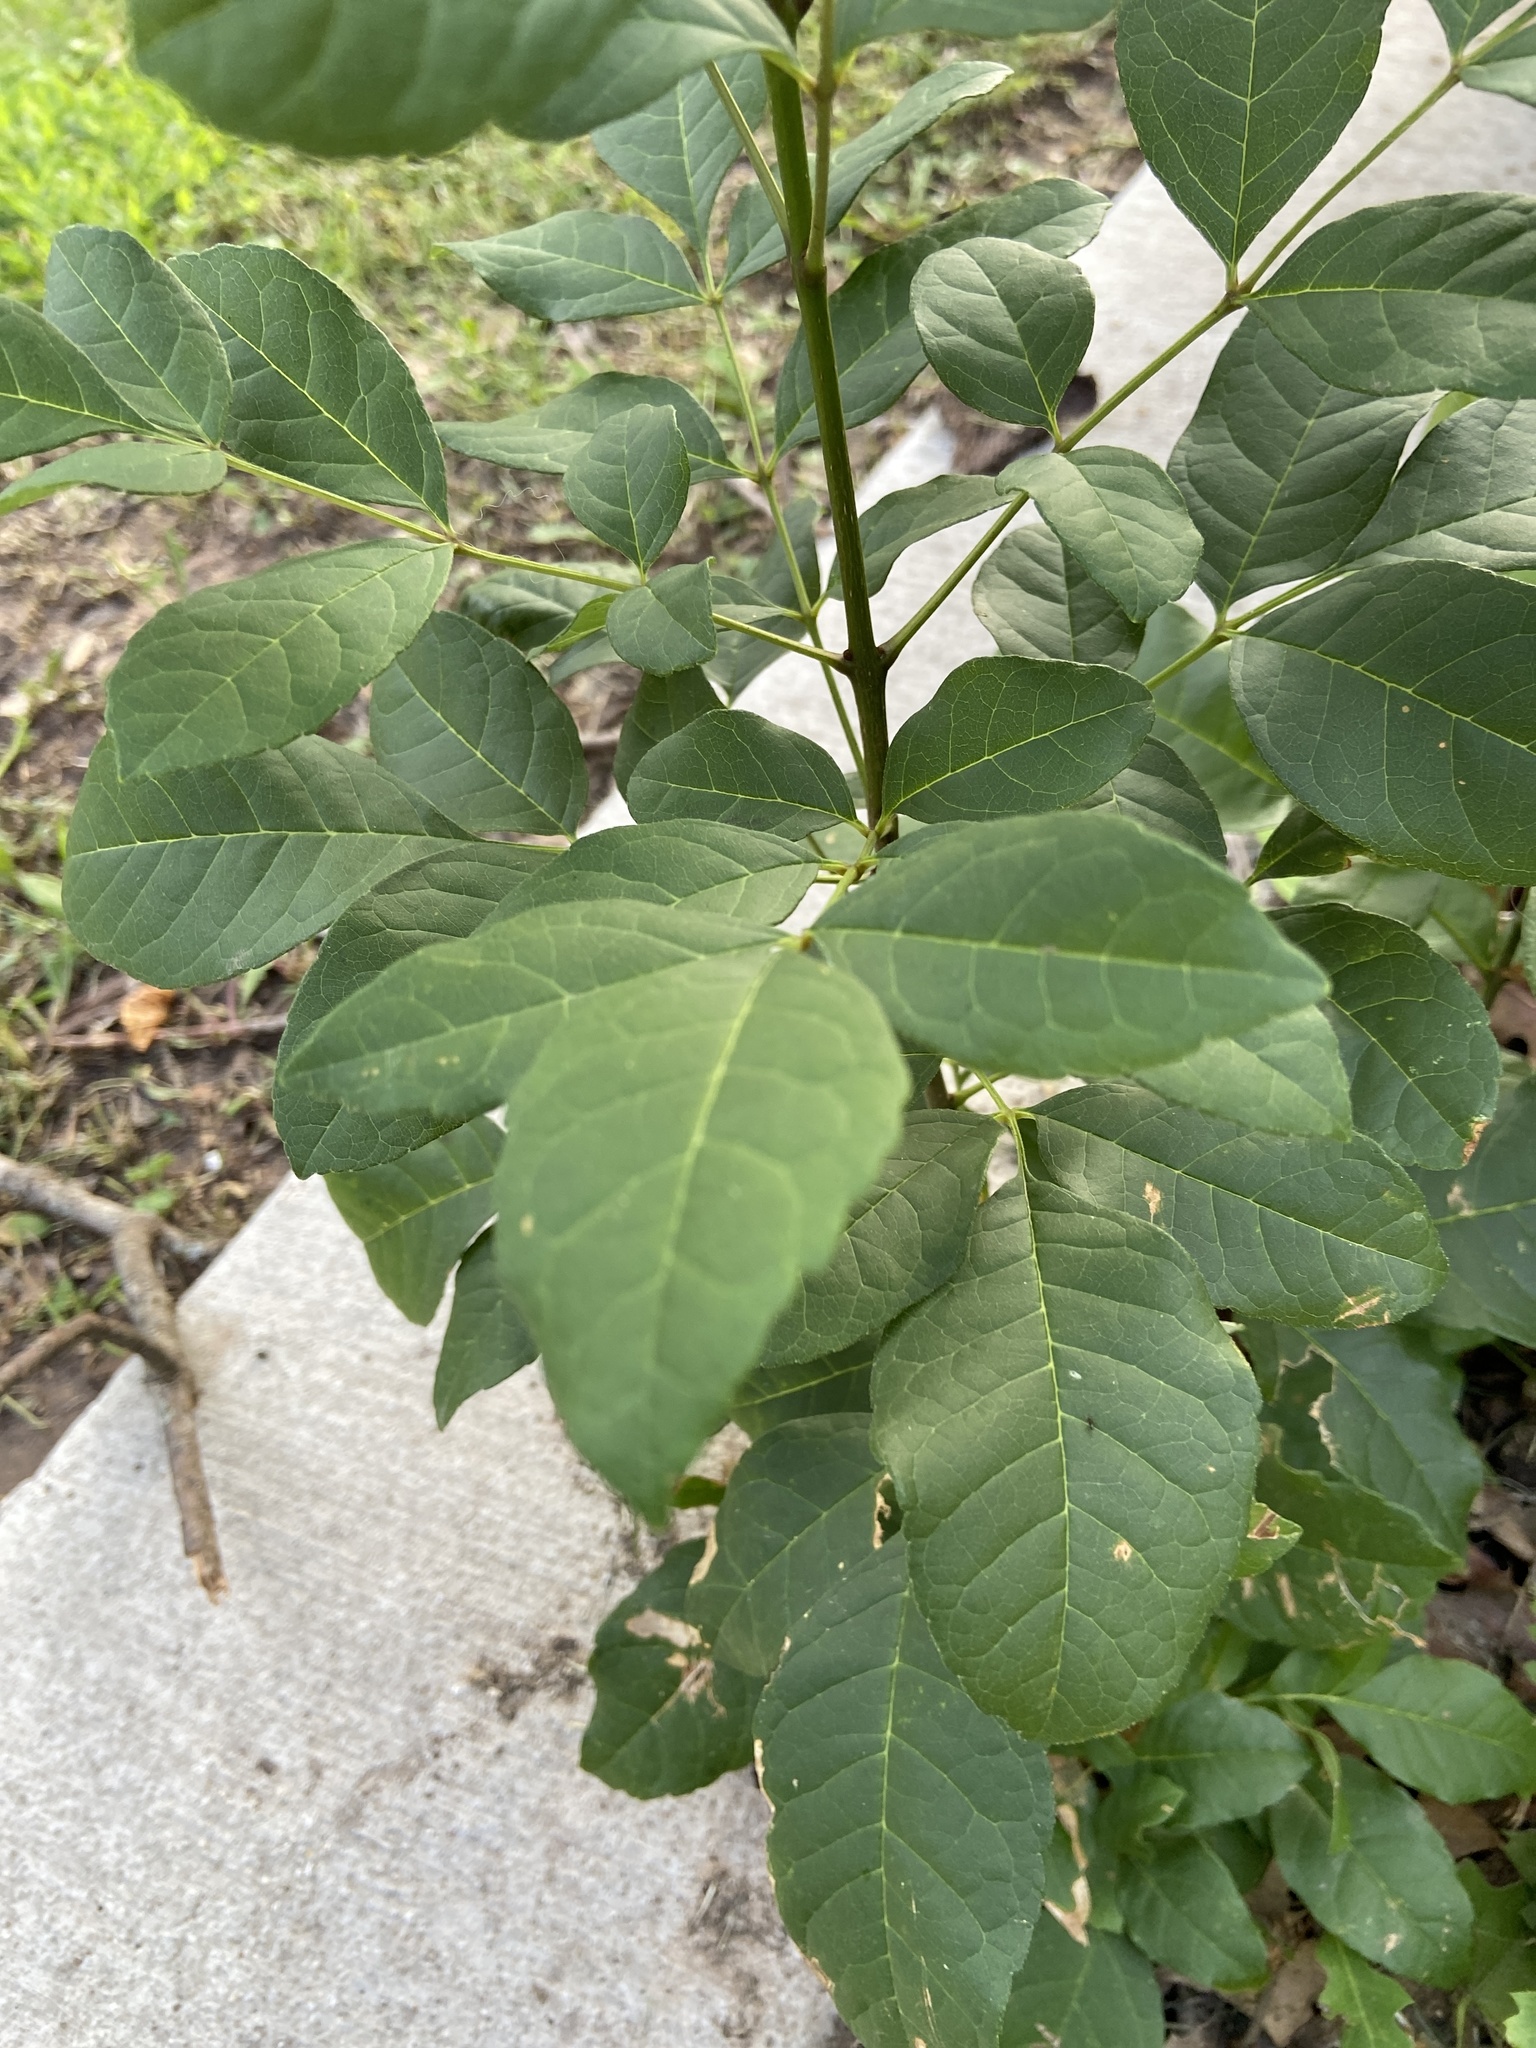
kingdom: Plantae
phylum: Tracheophyta
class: Magnoliopsida
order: Lamiales
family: Oleaceae
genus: Fraxinus
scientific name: Fraxinus albicans
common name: Texas ash
